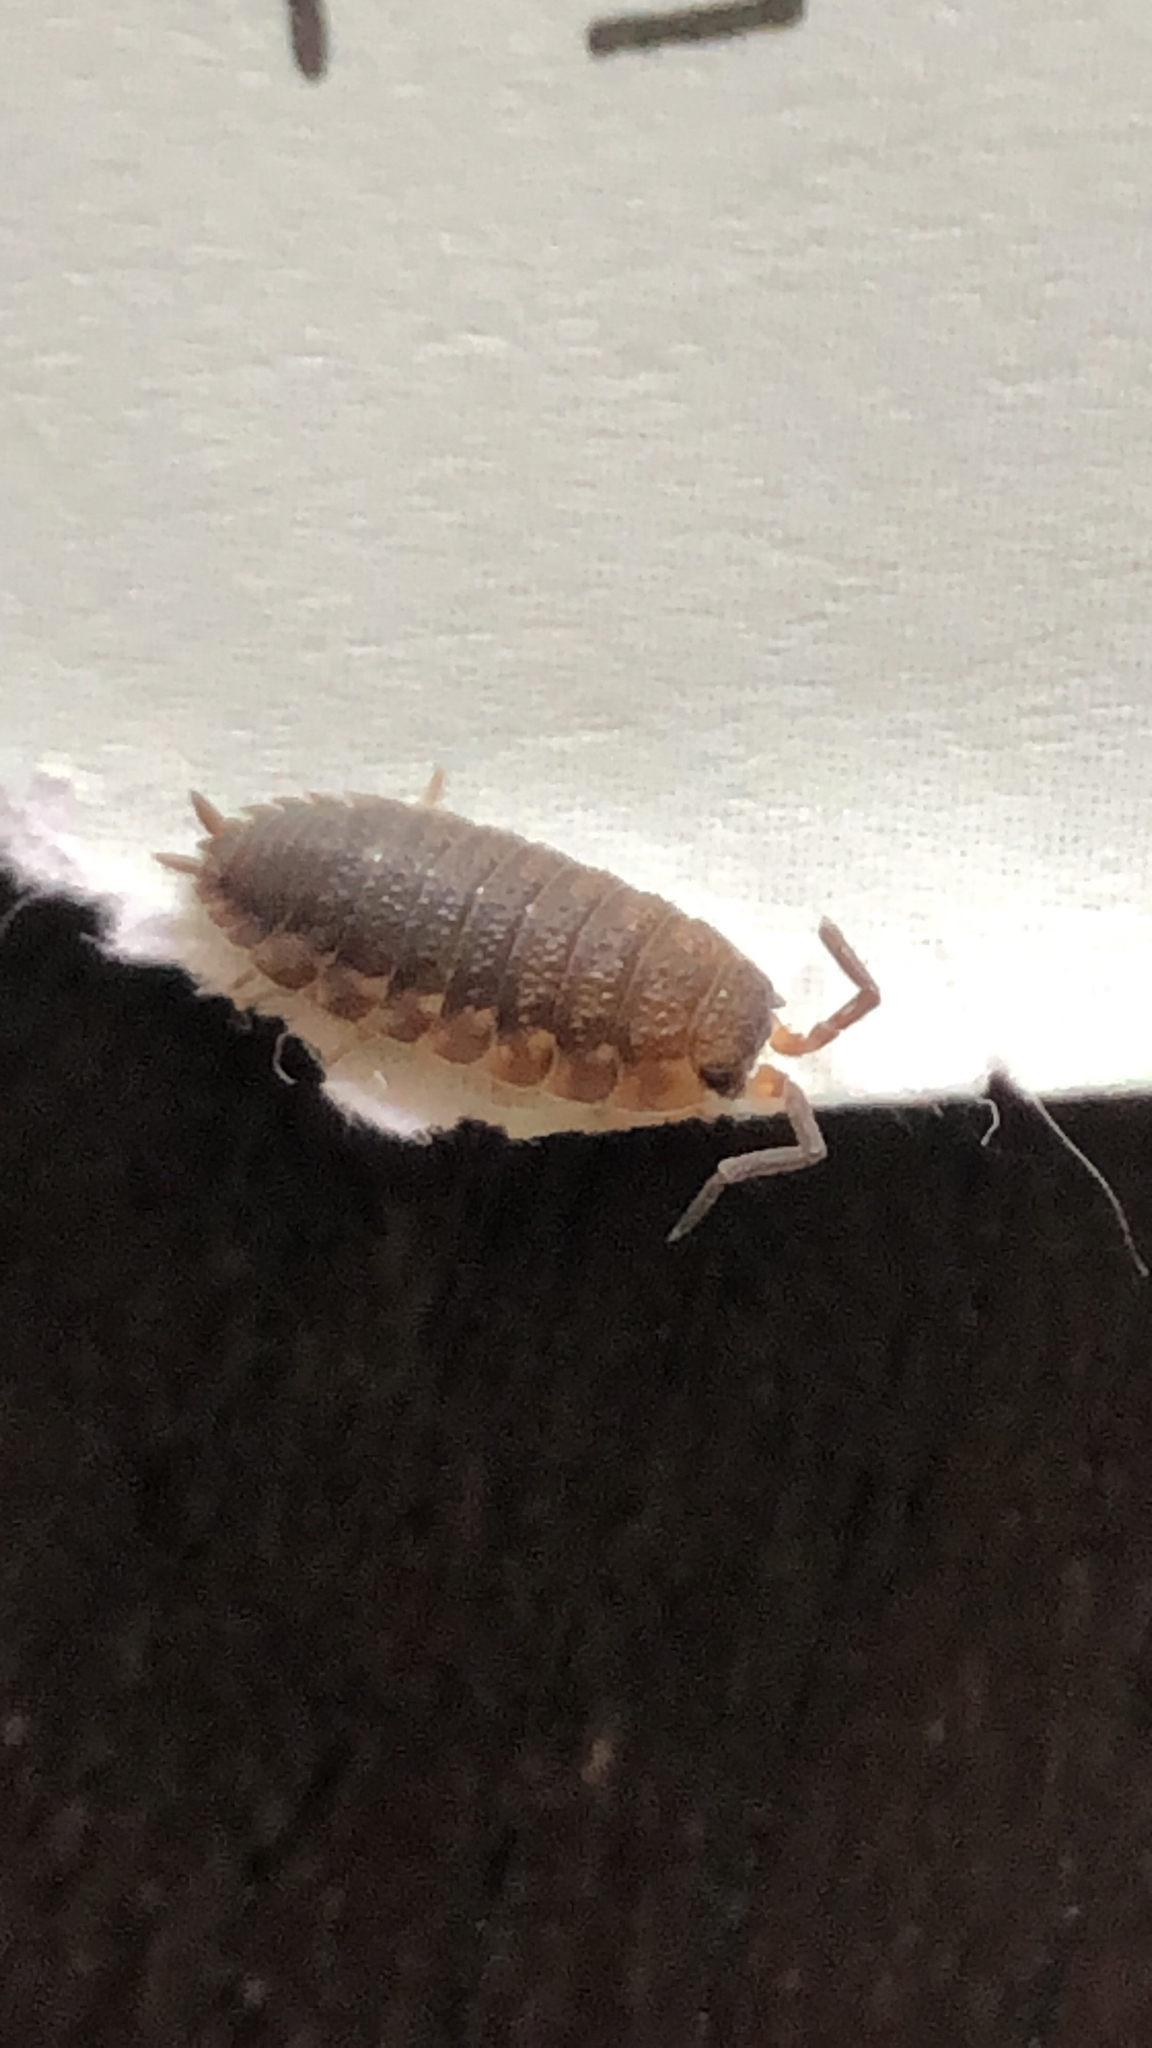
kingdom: Animalia
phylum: Arthropoda
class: Malacostraca
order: Isopoda
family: Porcellionidae
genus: Porcellio
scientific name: Porcellio scaber
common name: Common rough woodlouse
